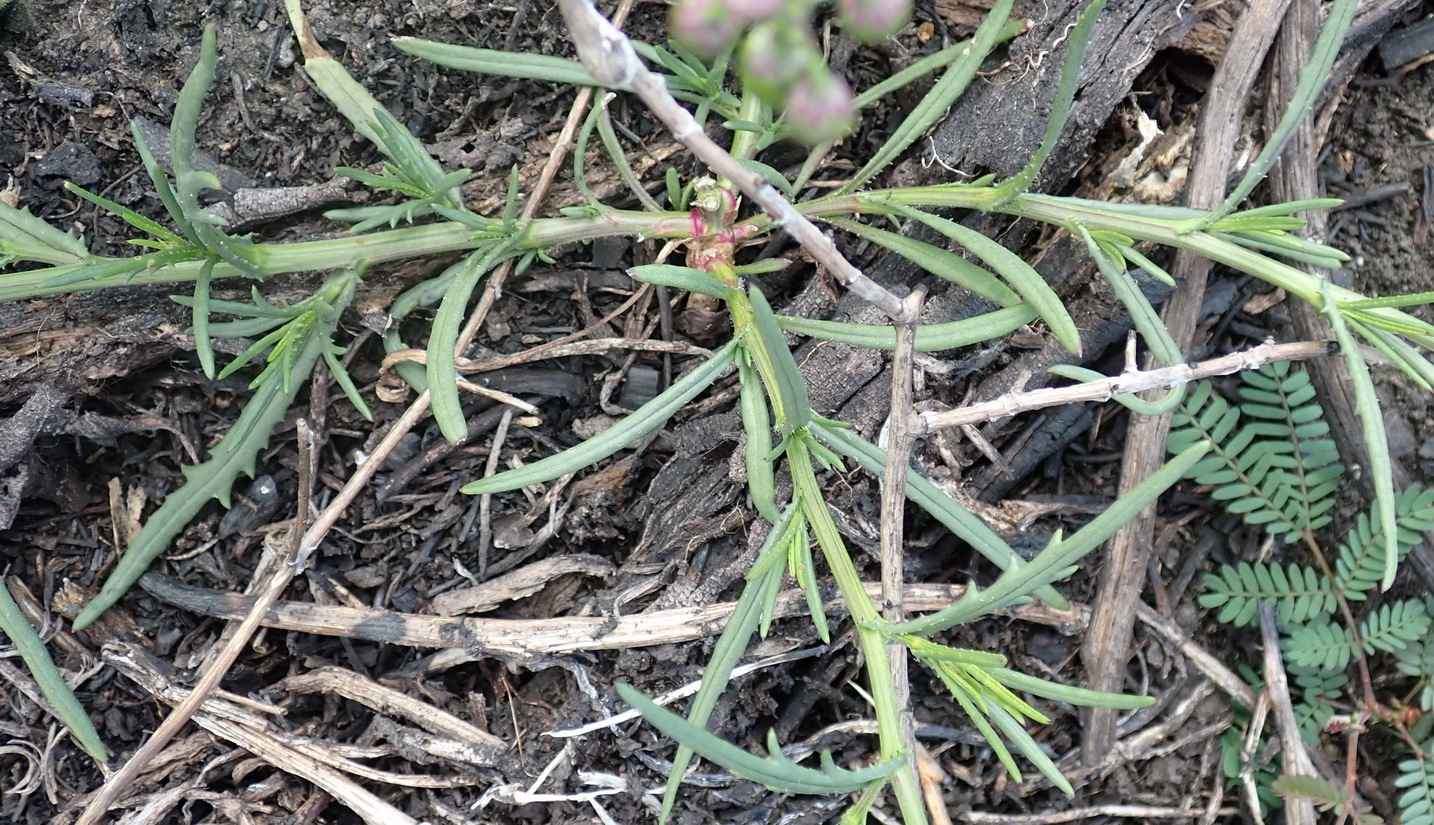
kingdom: Plantae
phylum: Tracheophyta
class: Magnoliopsida
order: Asterales
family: Asteraceae
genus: Senecio
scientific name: Senecio burchellii
